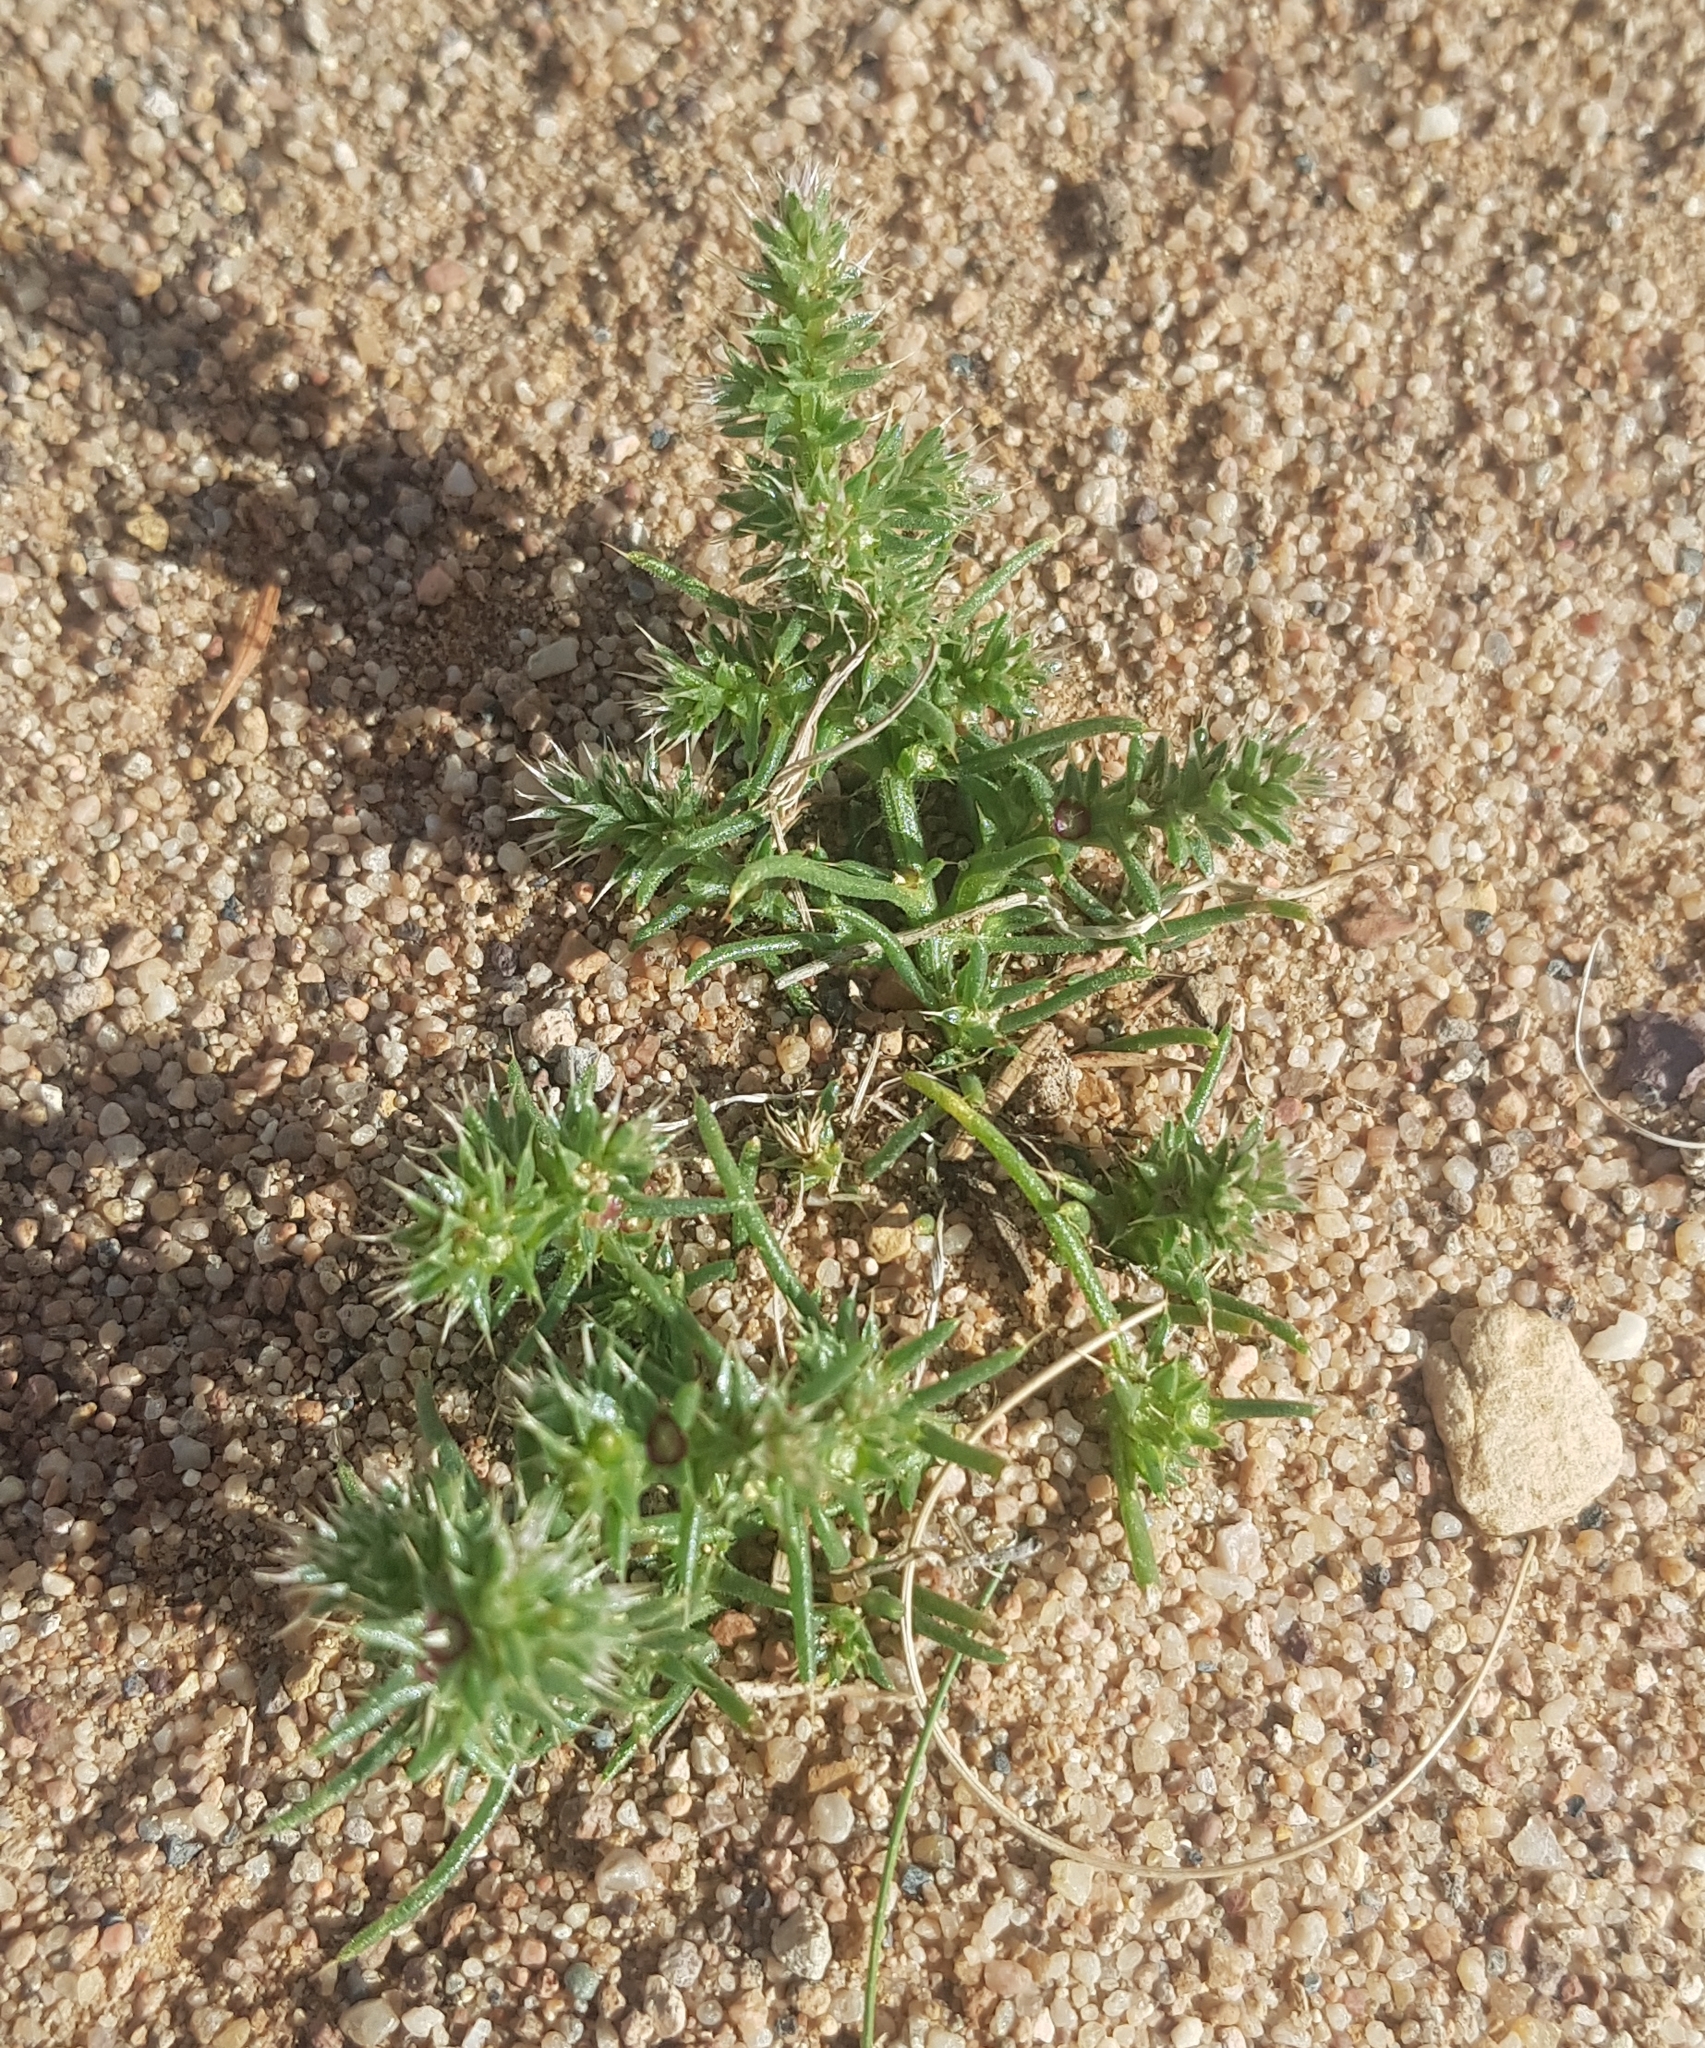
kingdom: Plantae
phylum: Tracheophyta
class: Magnoliopsida
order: Caryophyllales
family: Amaranthaceae
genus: Salsola
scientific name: Salsola tragus
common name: Prickly russian thistle
